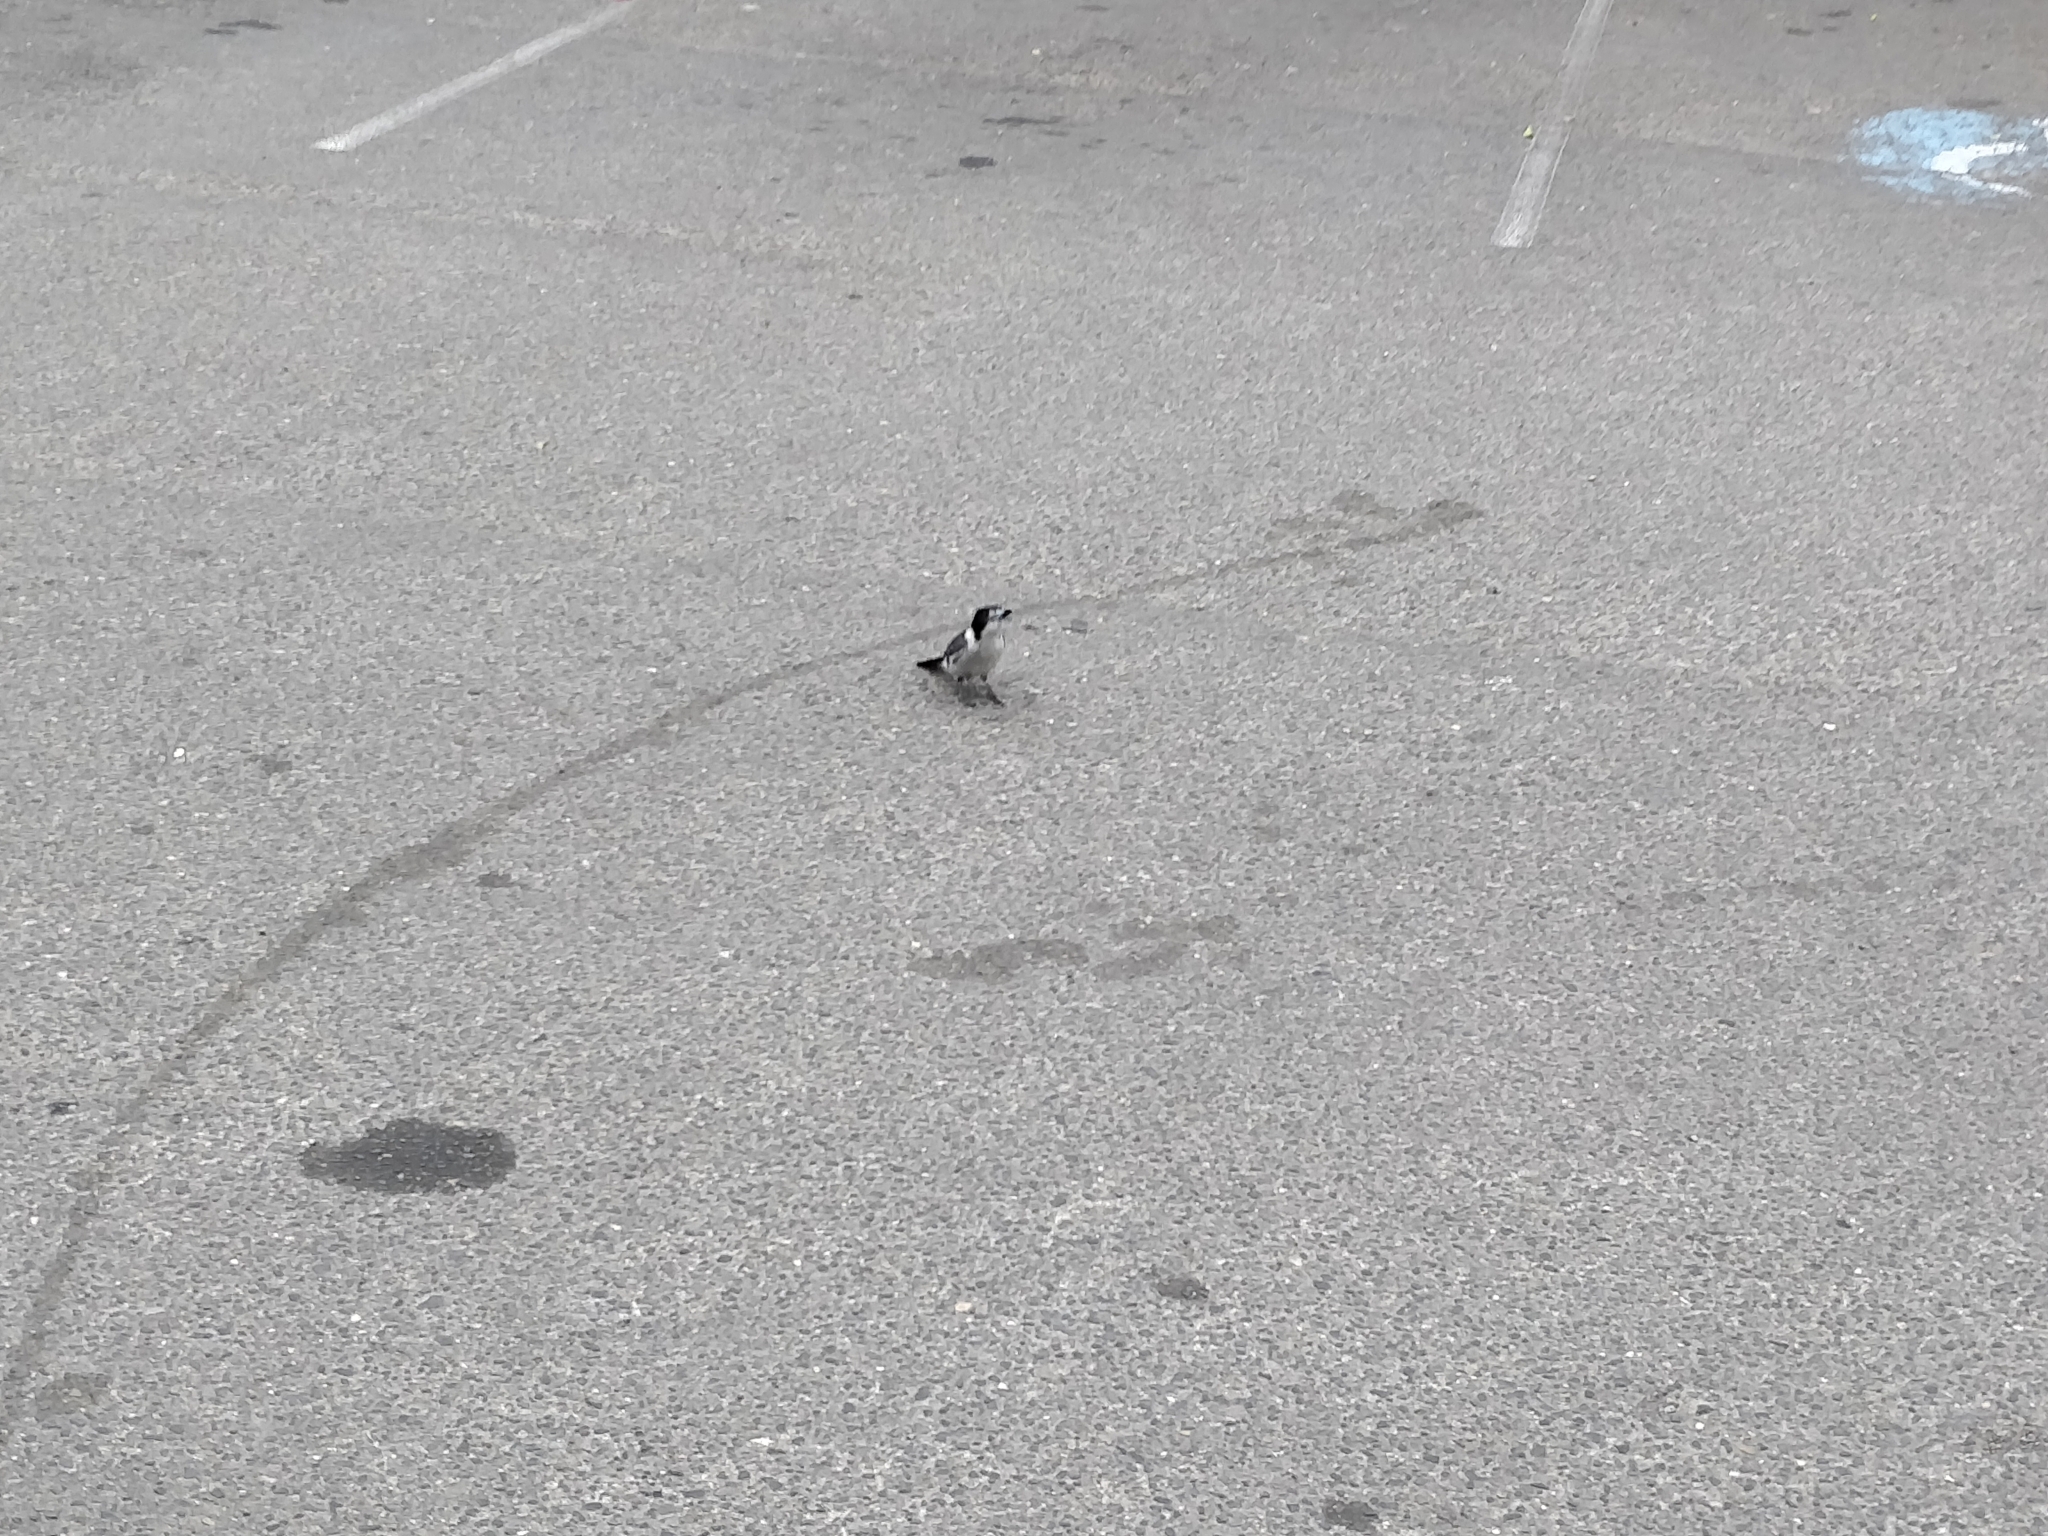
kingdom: Animalia
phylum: Chordata
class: Aves
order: Passeriformes
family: Cracticidae
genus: Cracticus
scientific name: Cracticus torquatus
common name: Grey butcherbird
